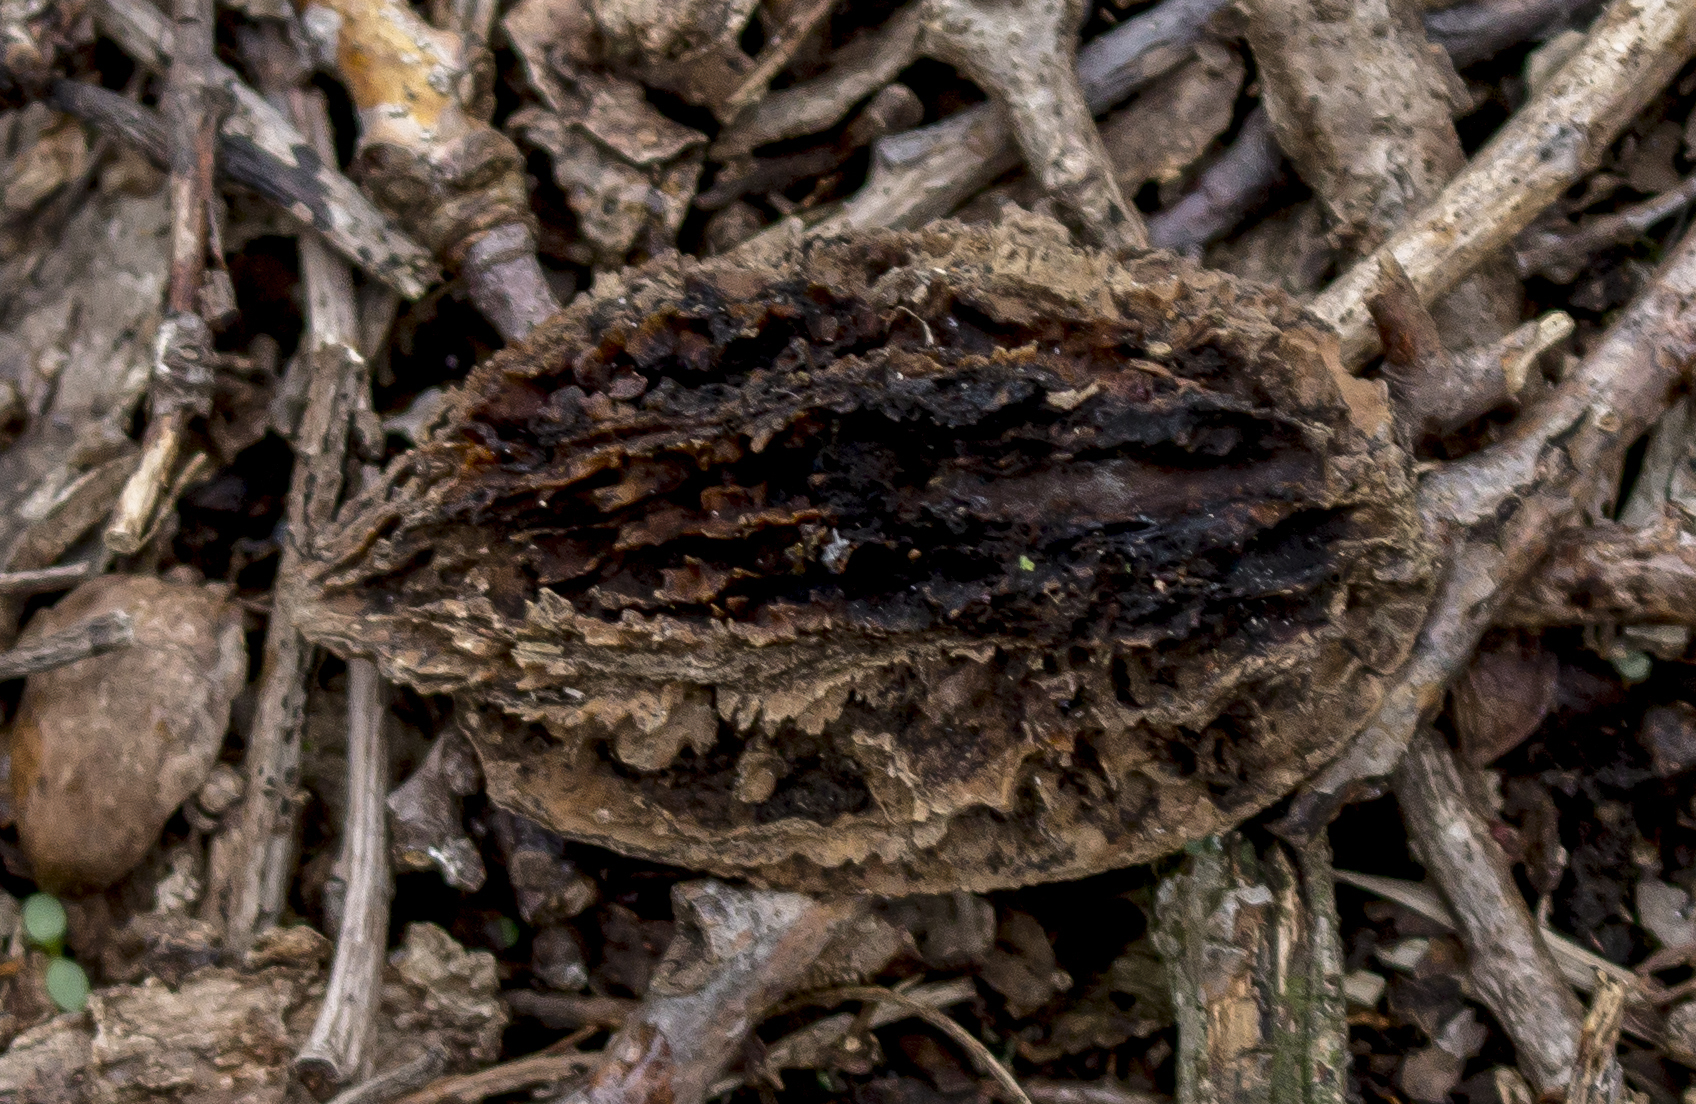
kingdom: Plantae
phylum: Tracheophyta
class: Magnoliopsida
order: Fagales
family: Juglandaceae
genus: Juglans
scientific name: Juglans cinerea
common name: Butternut
